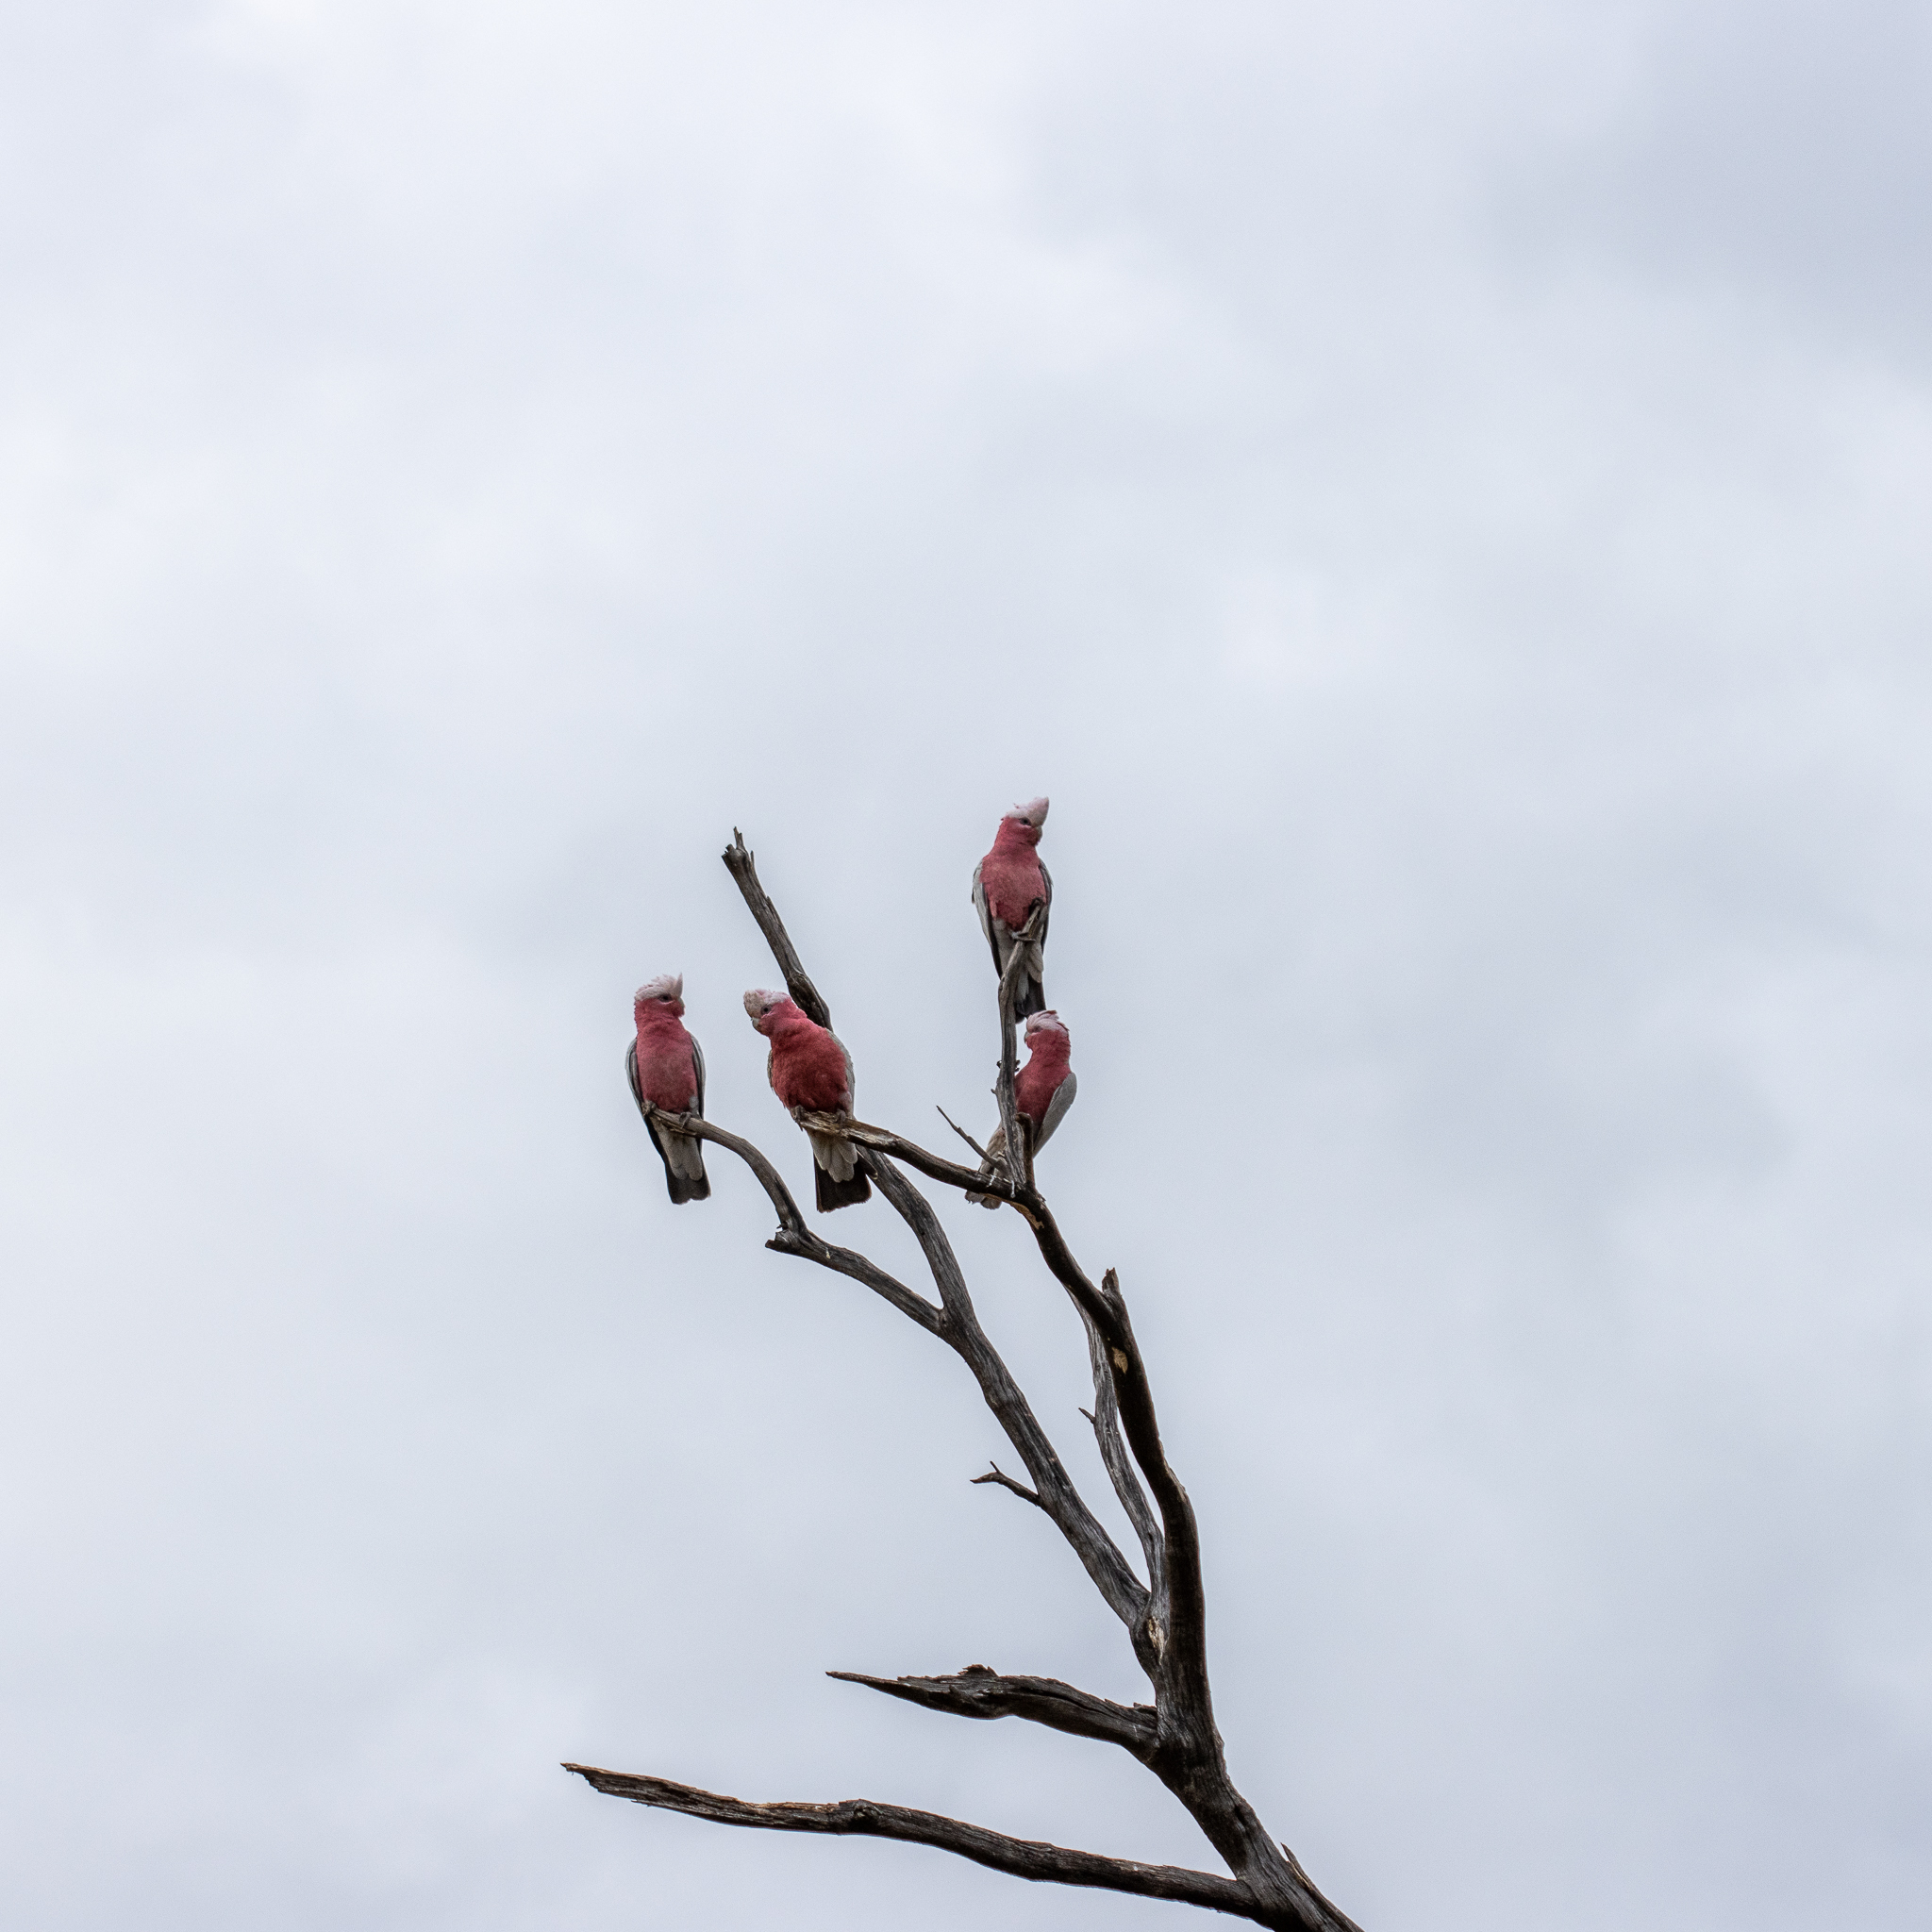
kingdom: Animalia
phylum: Chordata
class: Aves
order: Psittaciformes
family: Psittacidae
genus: Eolophus
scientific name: Eolophus roseicapilla
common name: Galah
